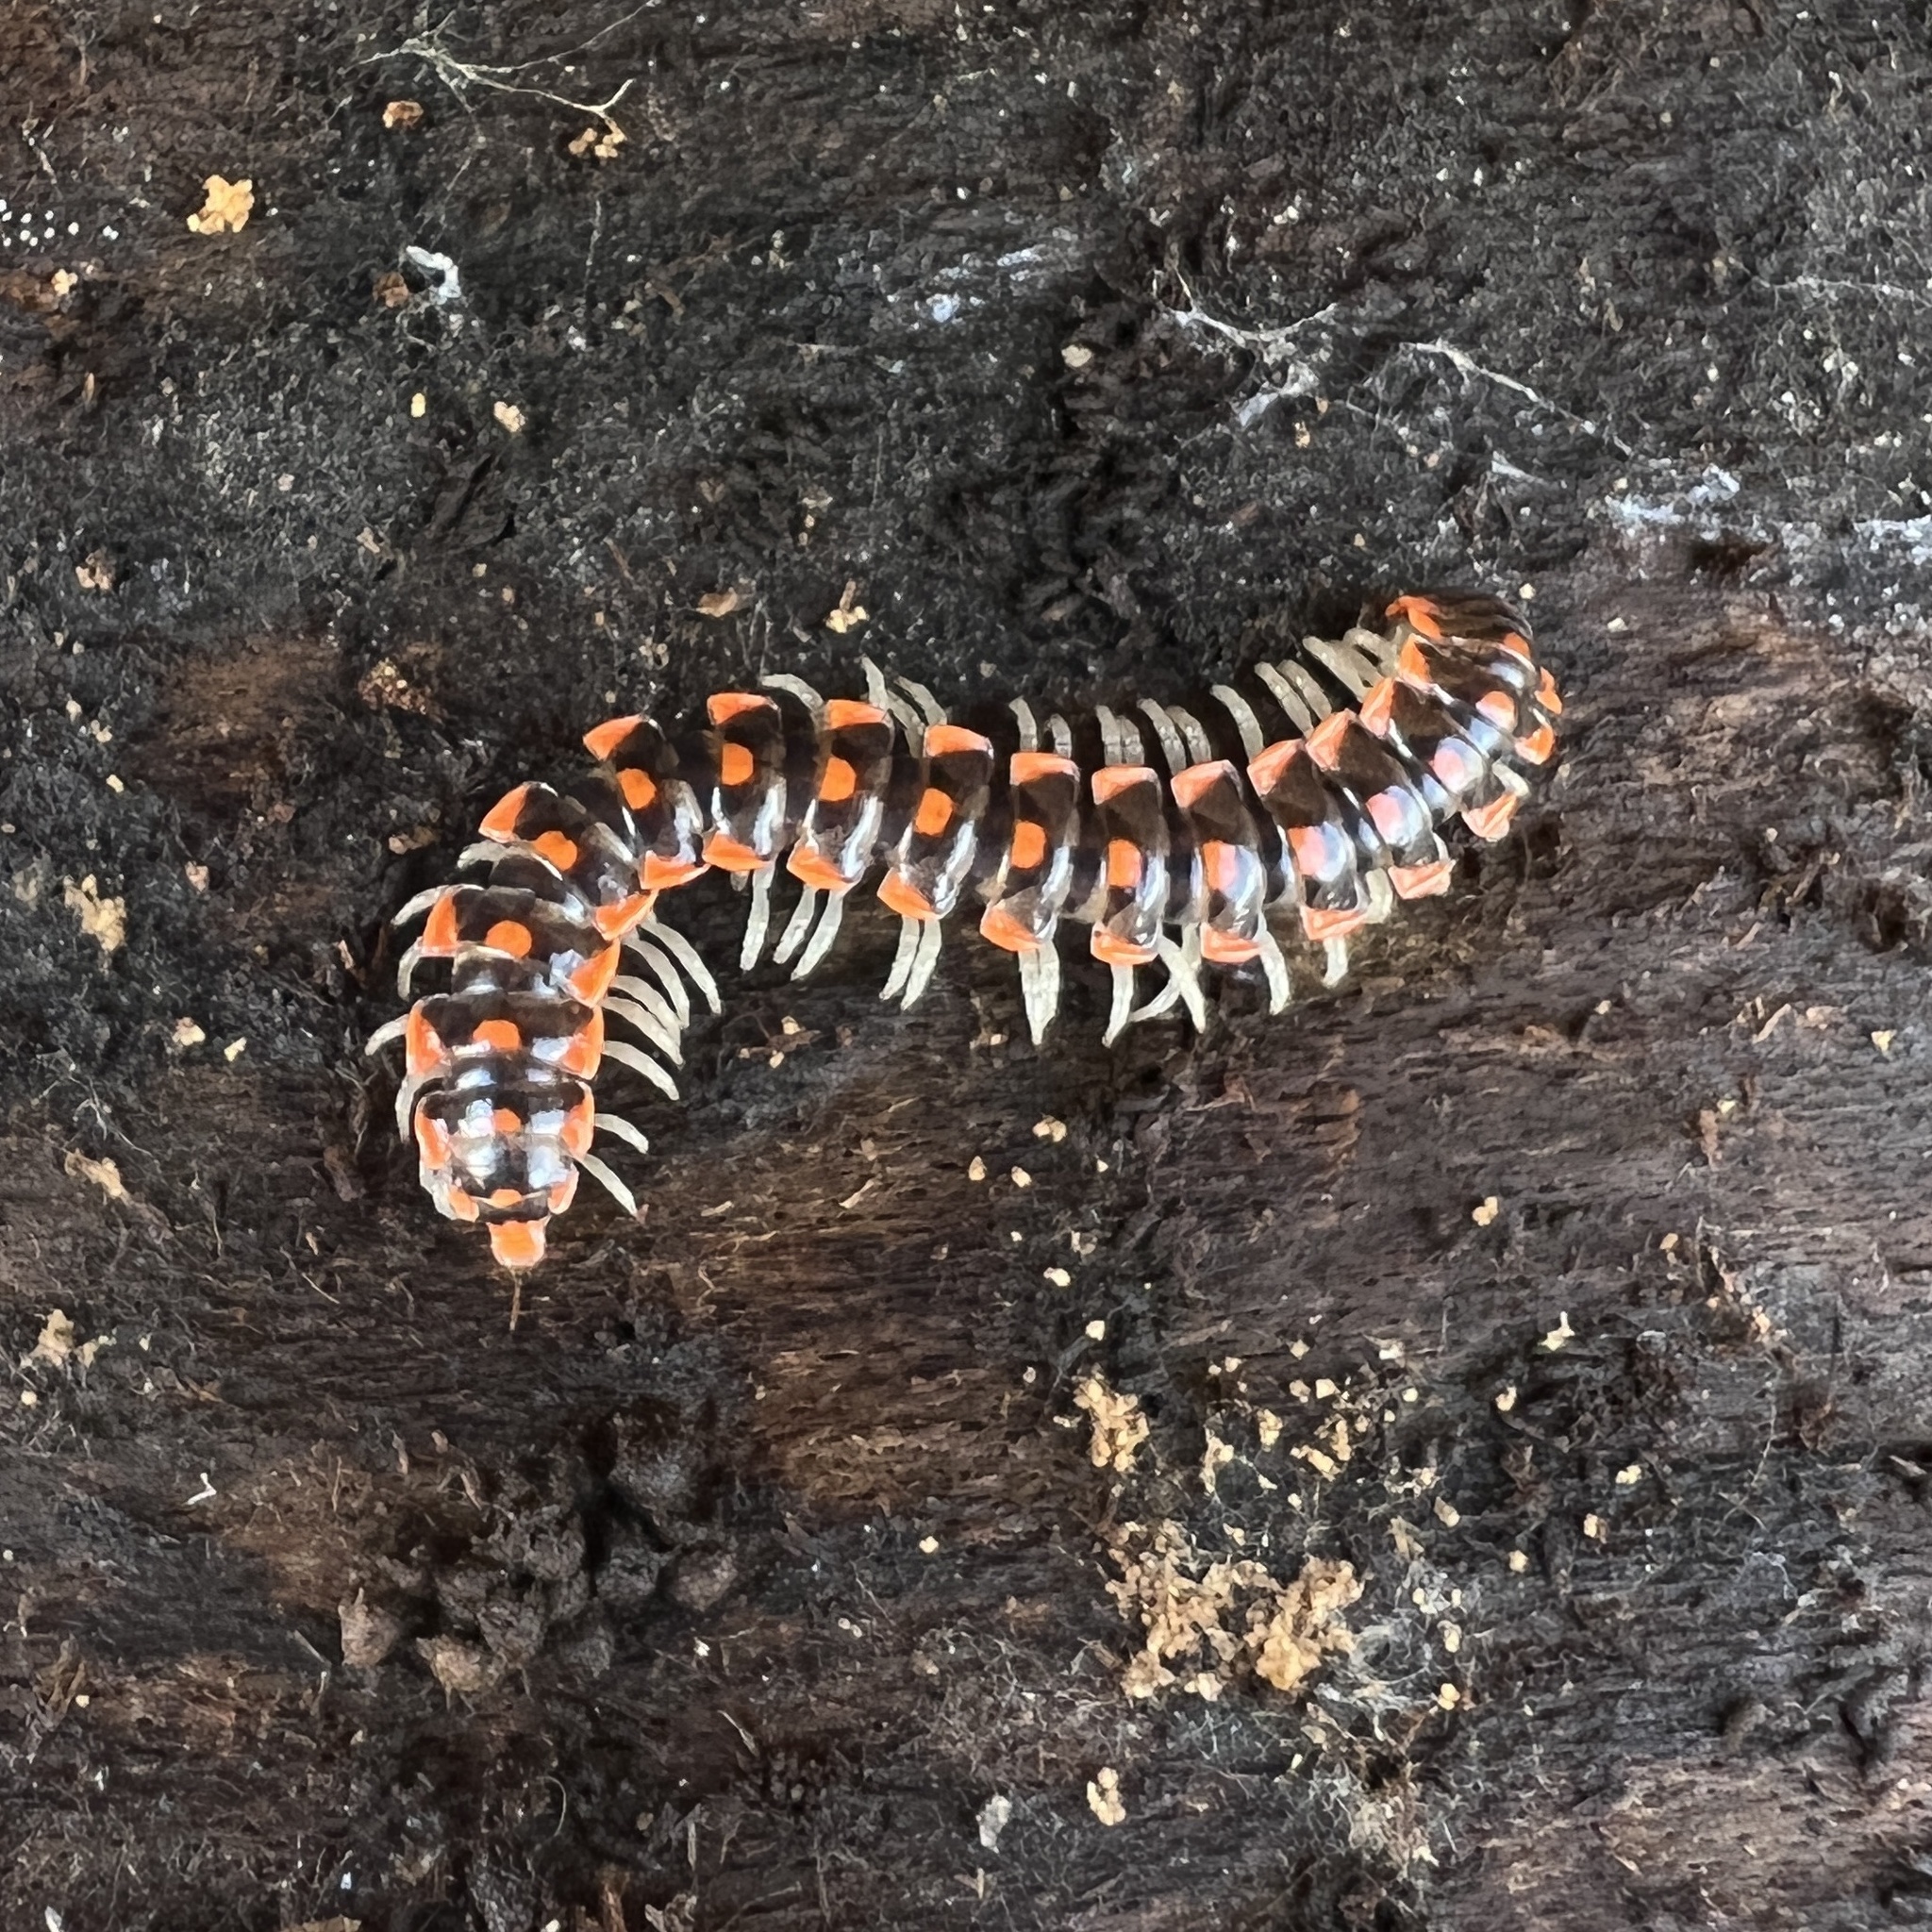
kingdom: Animalia
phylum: Arthropoda
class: Diplopoda
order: Polydesmida
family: Xystodesmidae
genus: Euryurus
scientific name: Euryurus leachii
